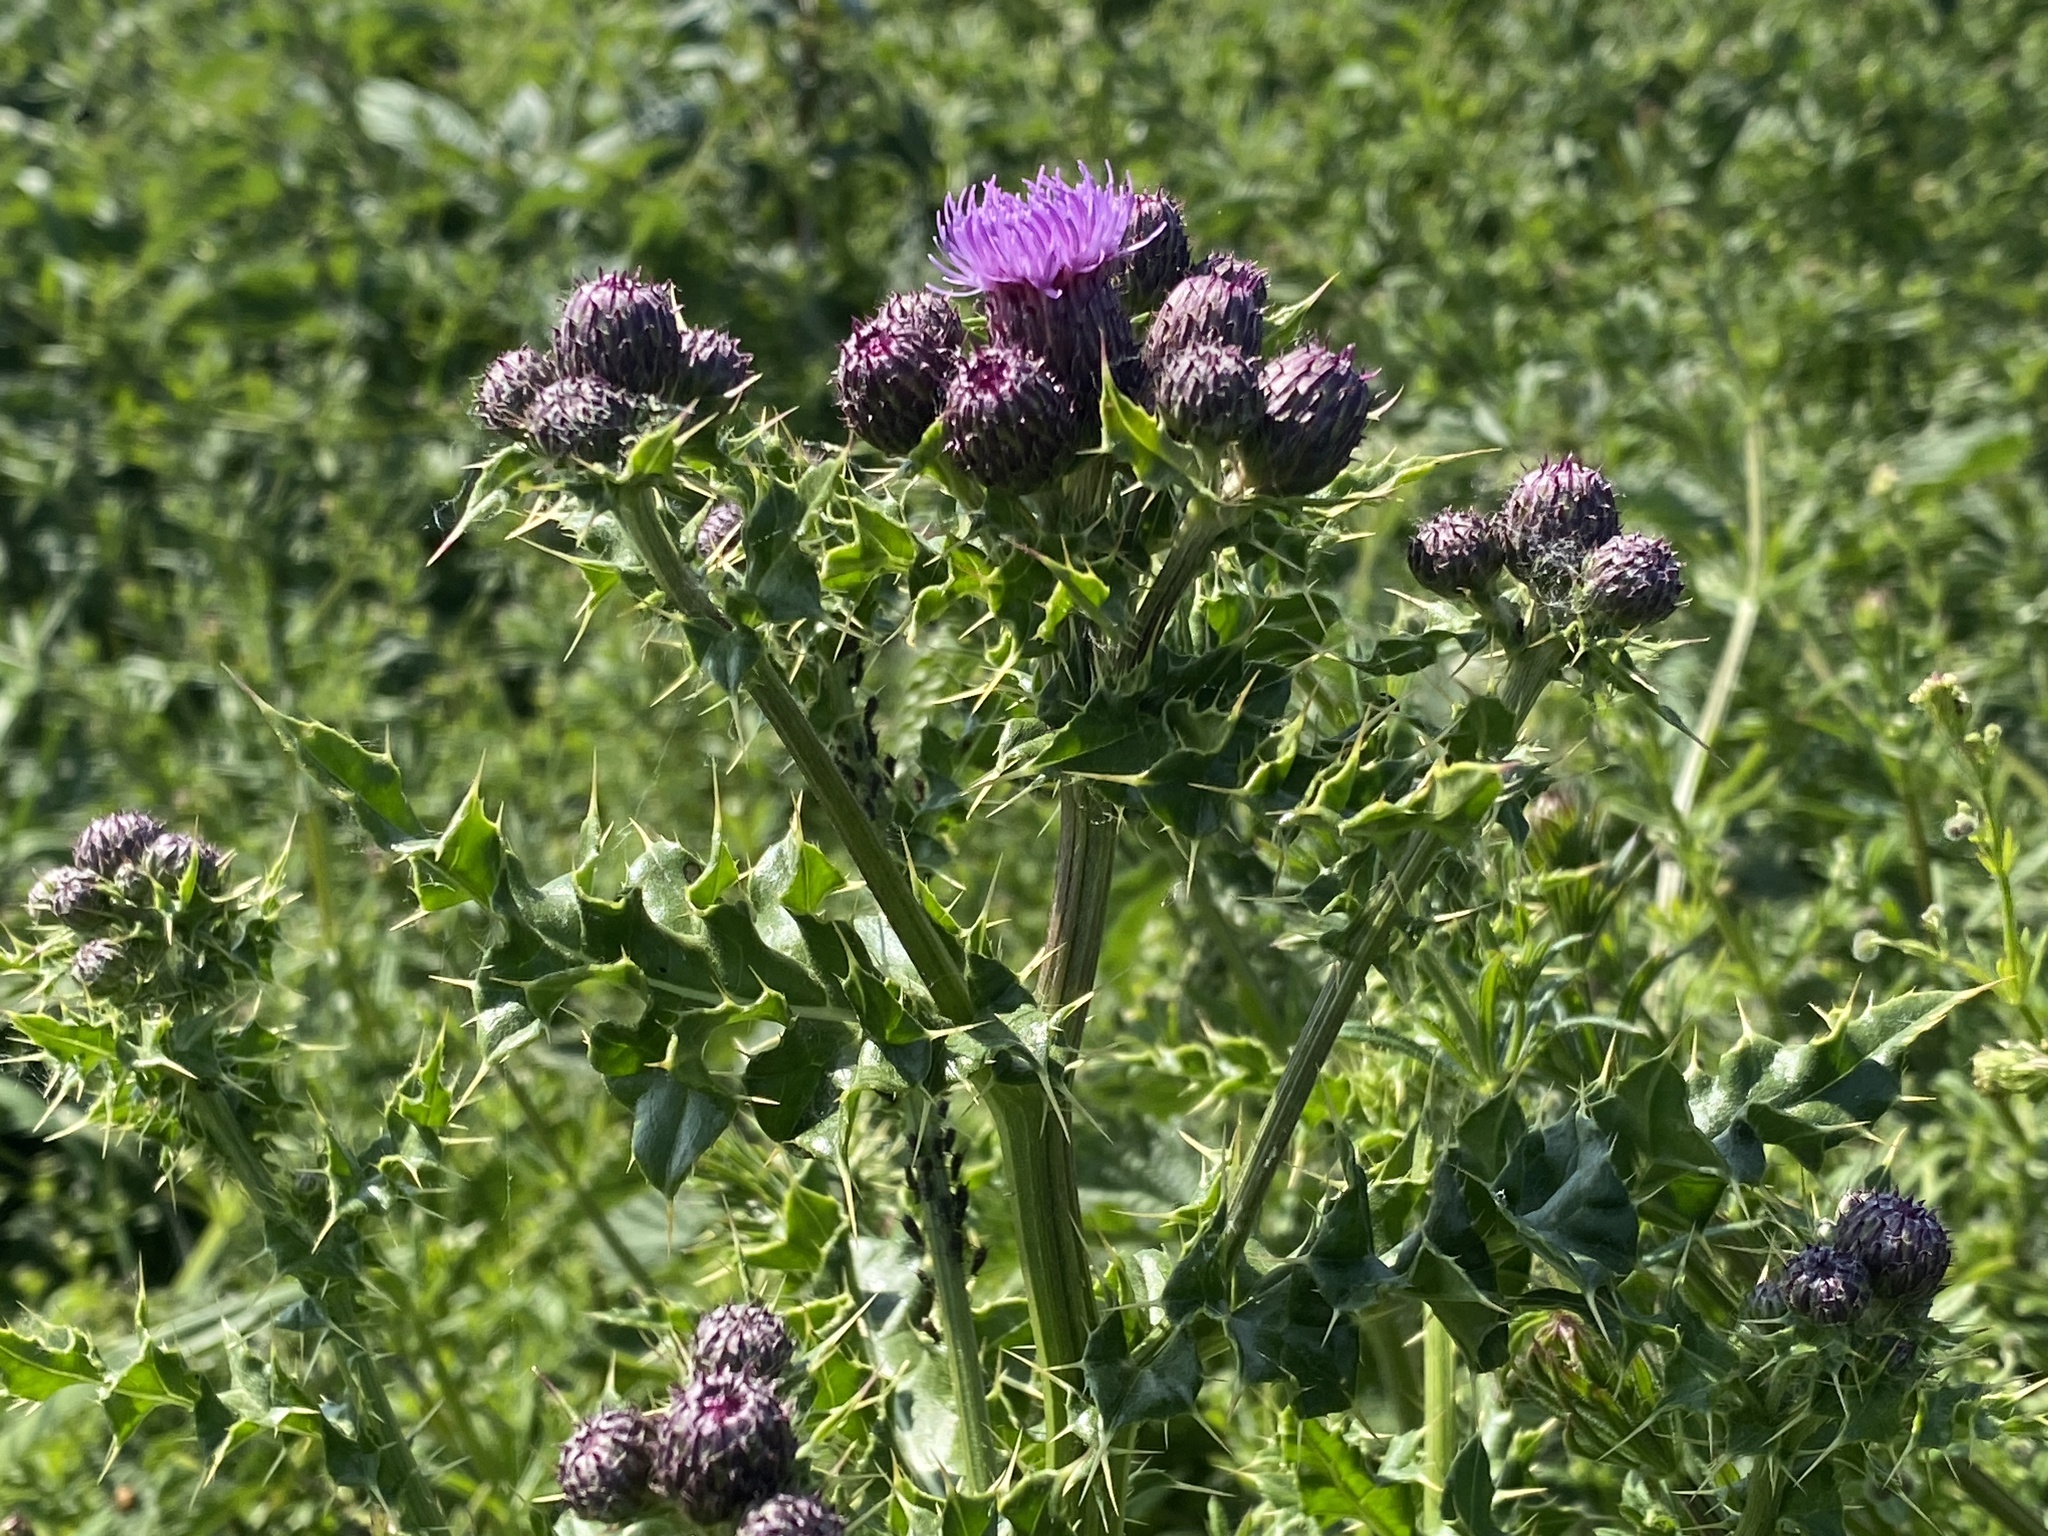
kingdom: Plantae
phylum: Tracheophyta
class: Magnoliopsida
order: Asterales
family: Asteraceae
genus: Cirsium
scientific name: Cirsium arvense
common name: Creeping thistle
